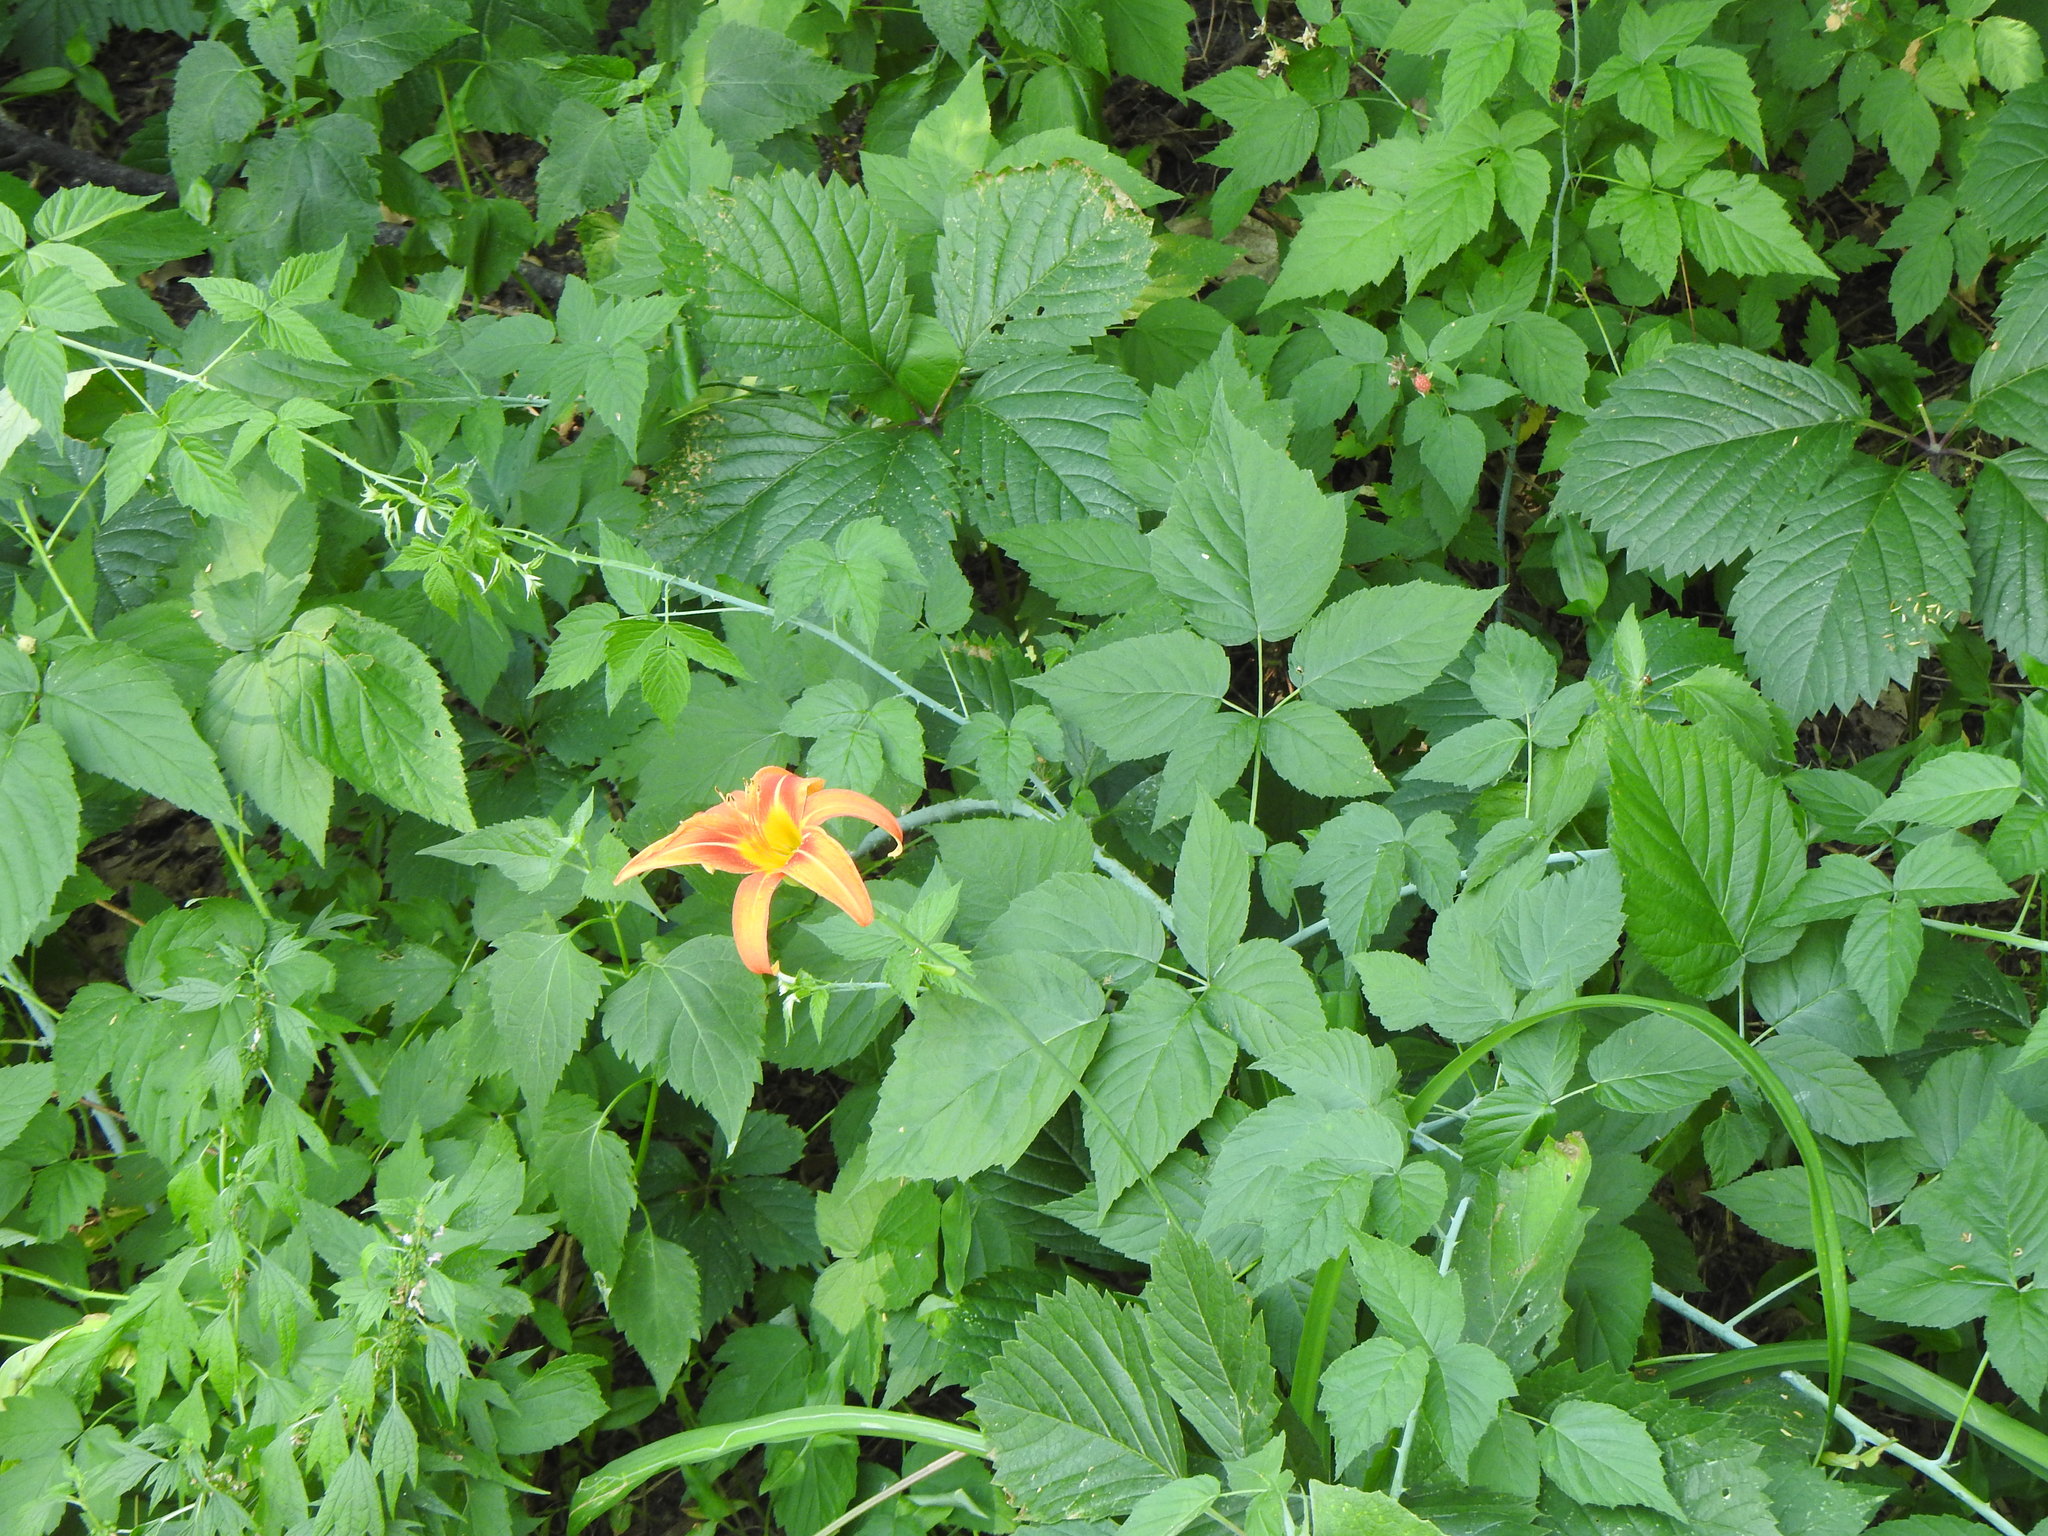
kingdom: Plantae
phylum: Tracheophyta
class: Liliopsida
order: Asparagales
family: Asphodelaceae
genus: Hemerocallis
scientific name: Hemerocallis fulva
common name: Orange day-lily
